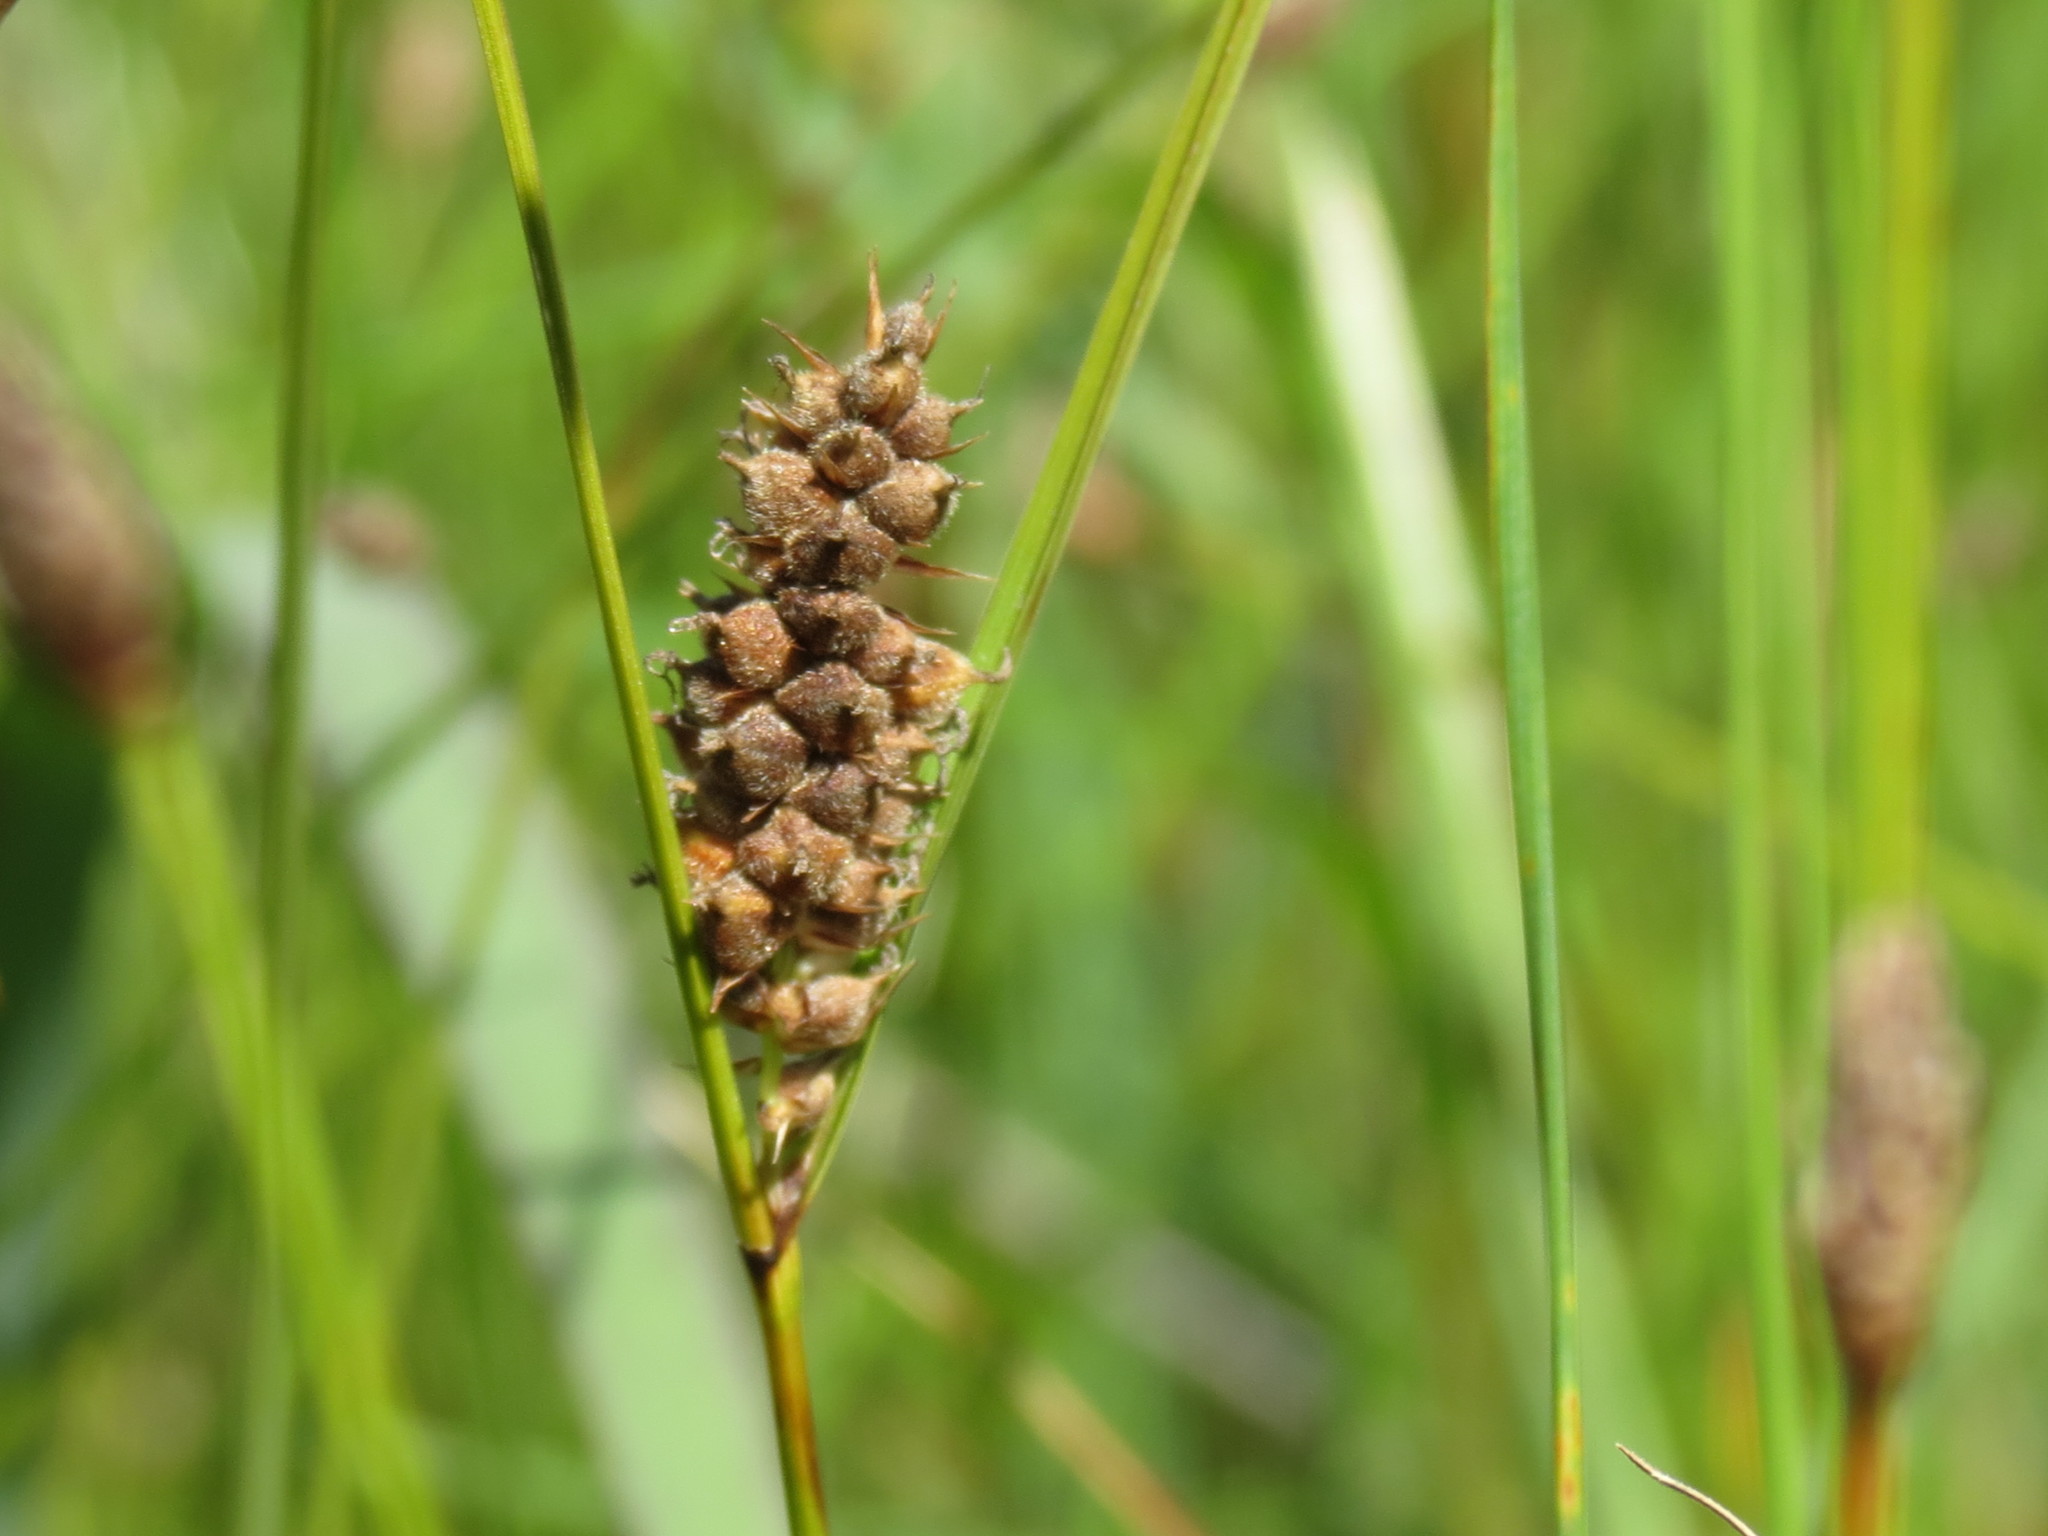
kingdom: Plantae
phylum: Tracheophyta
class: Liliopsida
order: Poales
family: Cyperaceae
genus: Carex
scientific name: Carex pellita
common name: Woolly sedge
